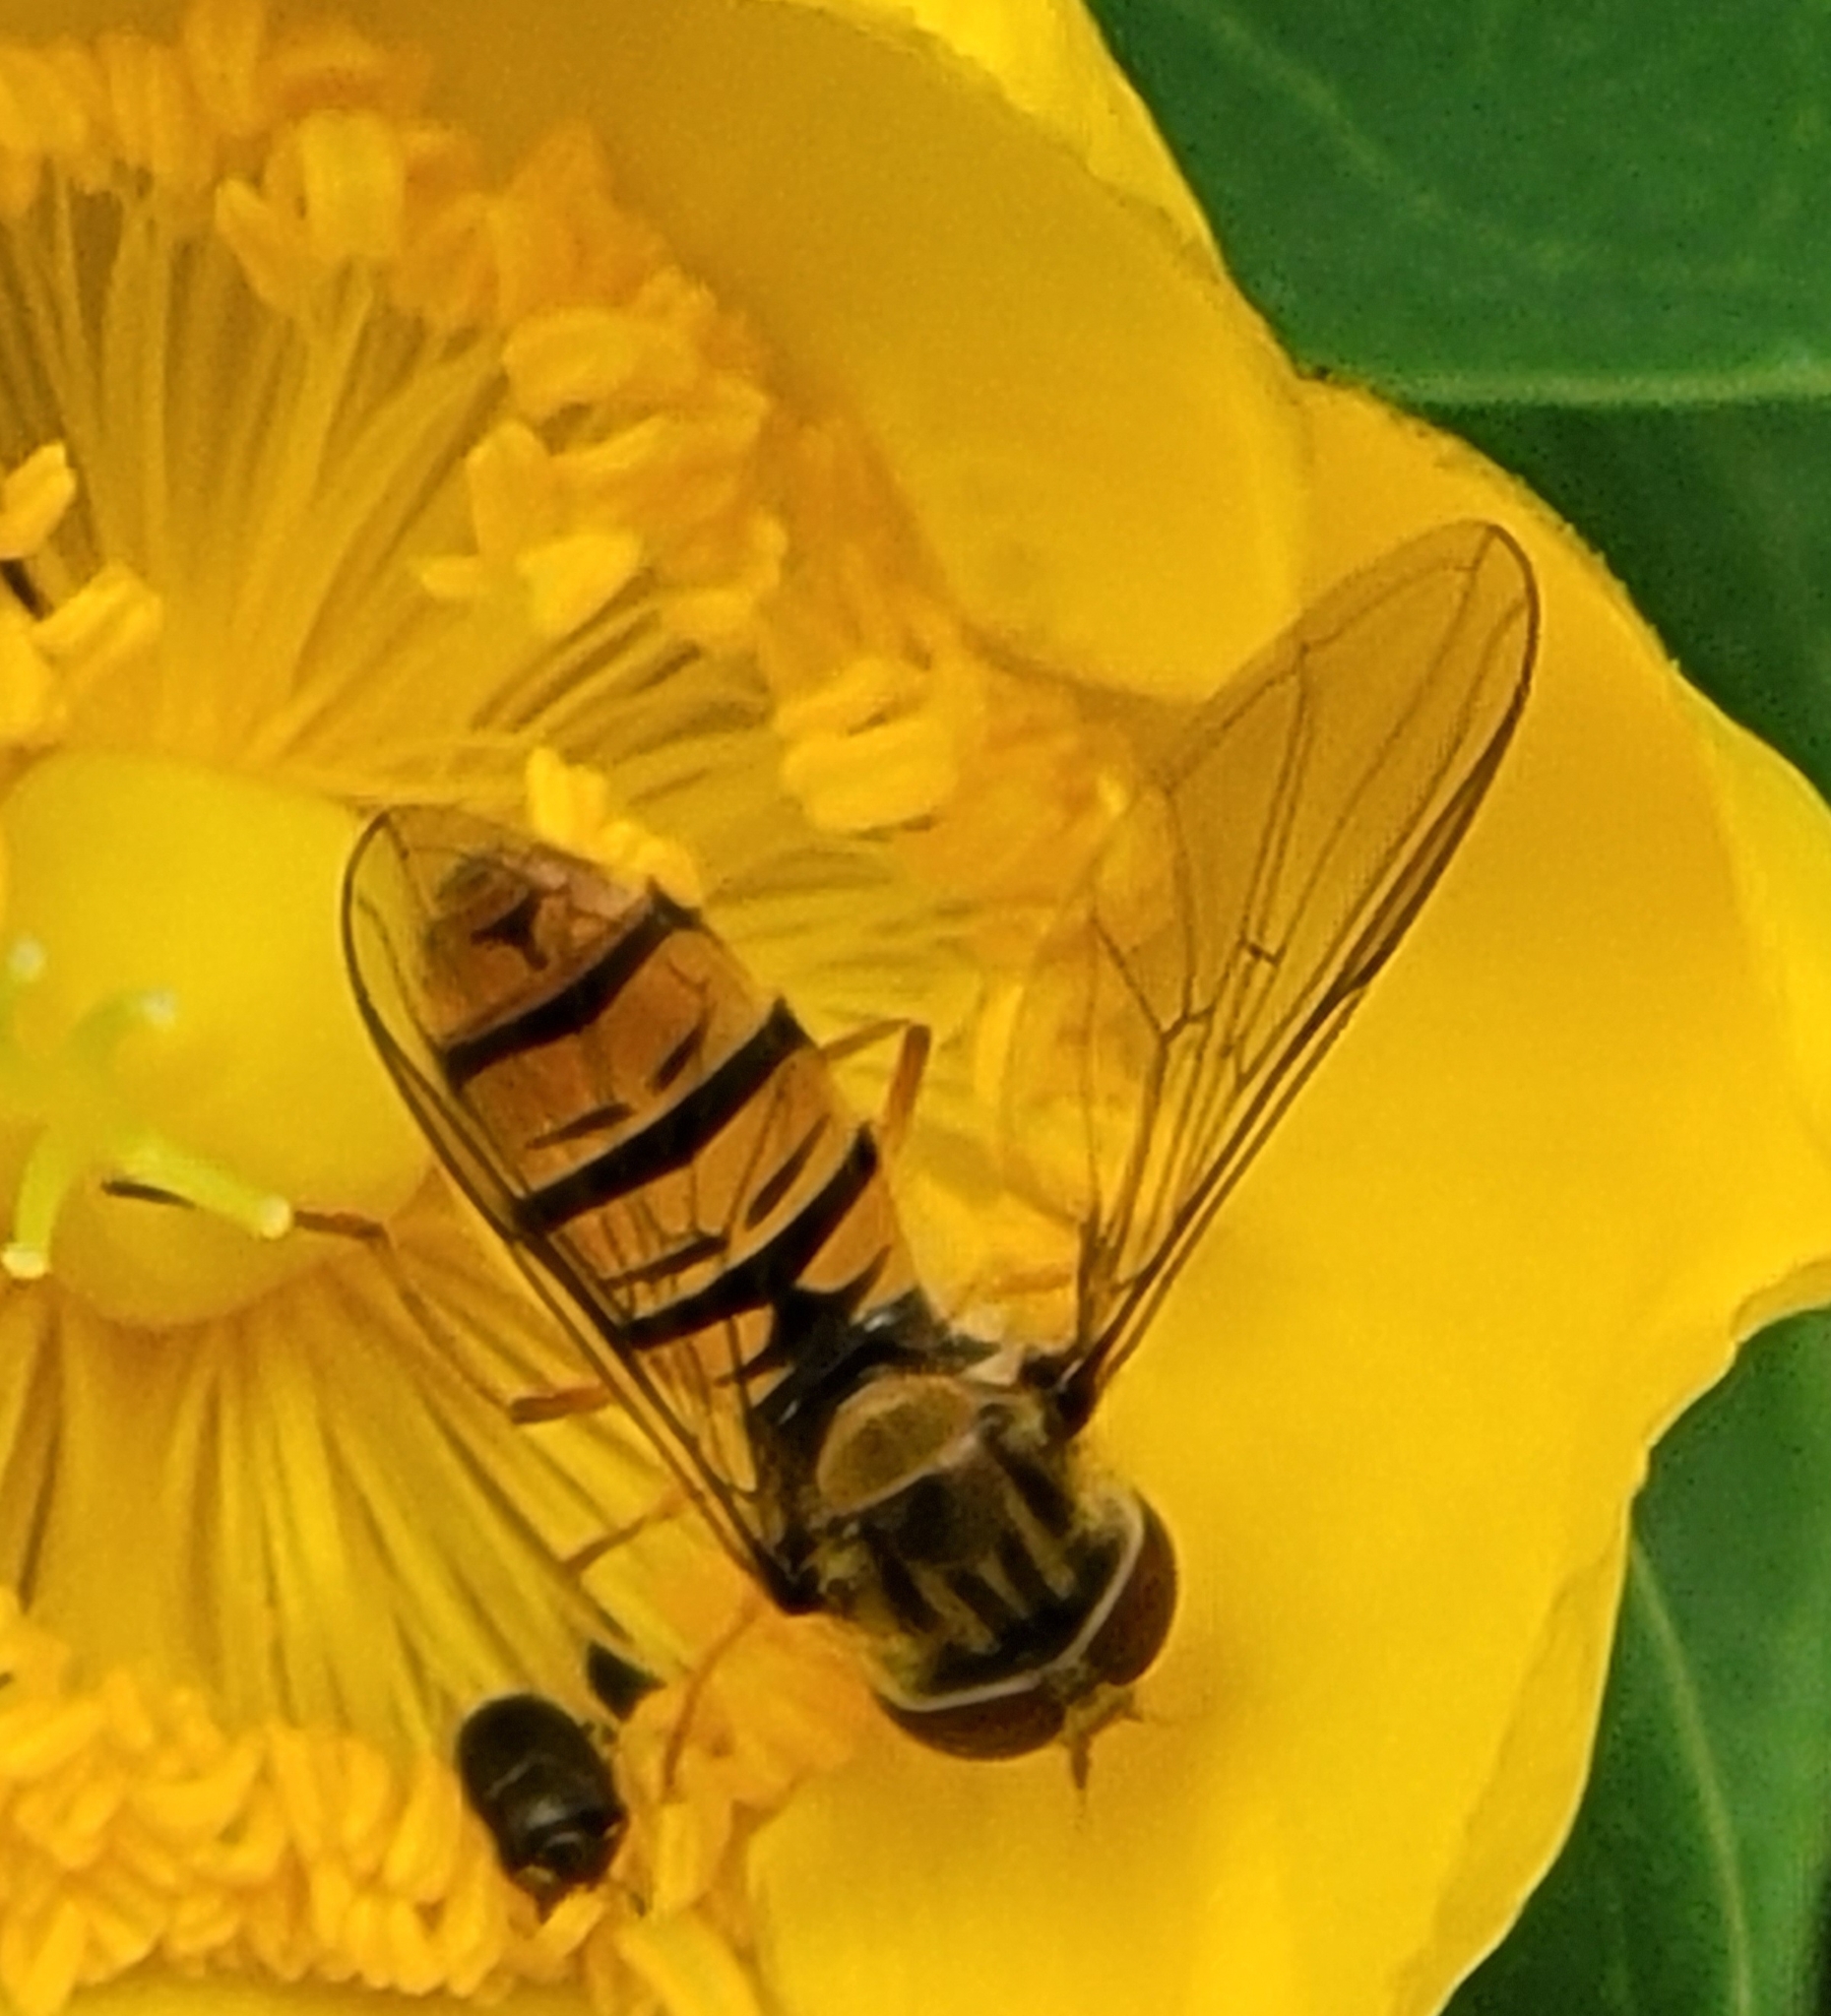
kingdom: Animalia
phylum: Arthropoda
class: Insecta
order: Diptera
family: Syrphidae
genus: Episyrphus
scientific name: Episyrphus balteatus
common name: Marmalade hoverfly
